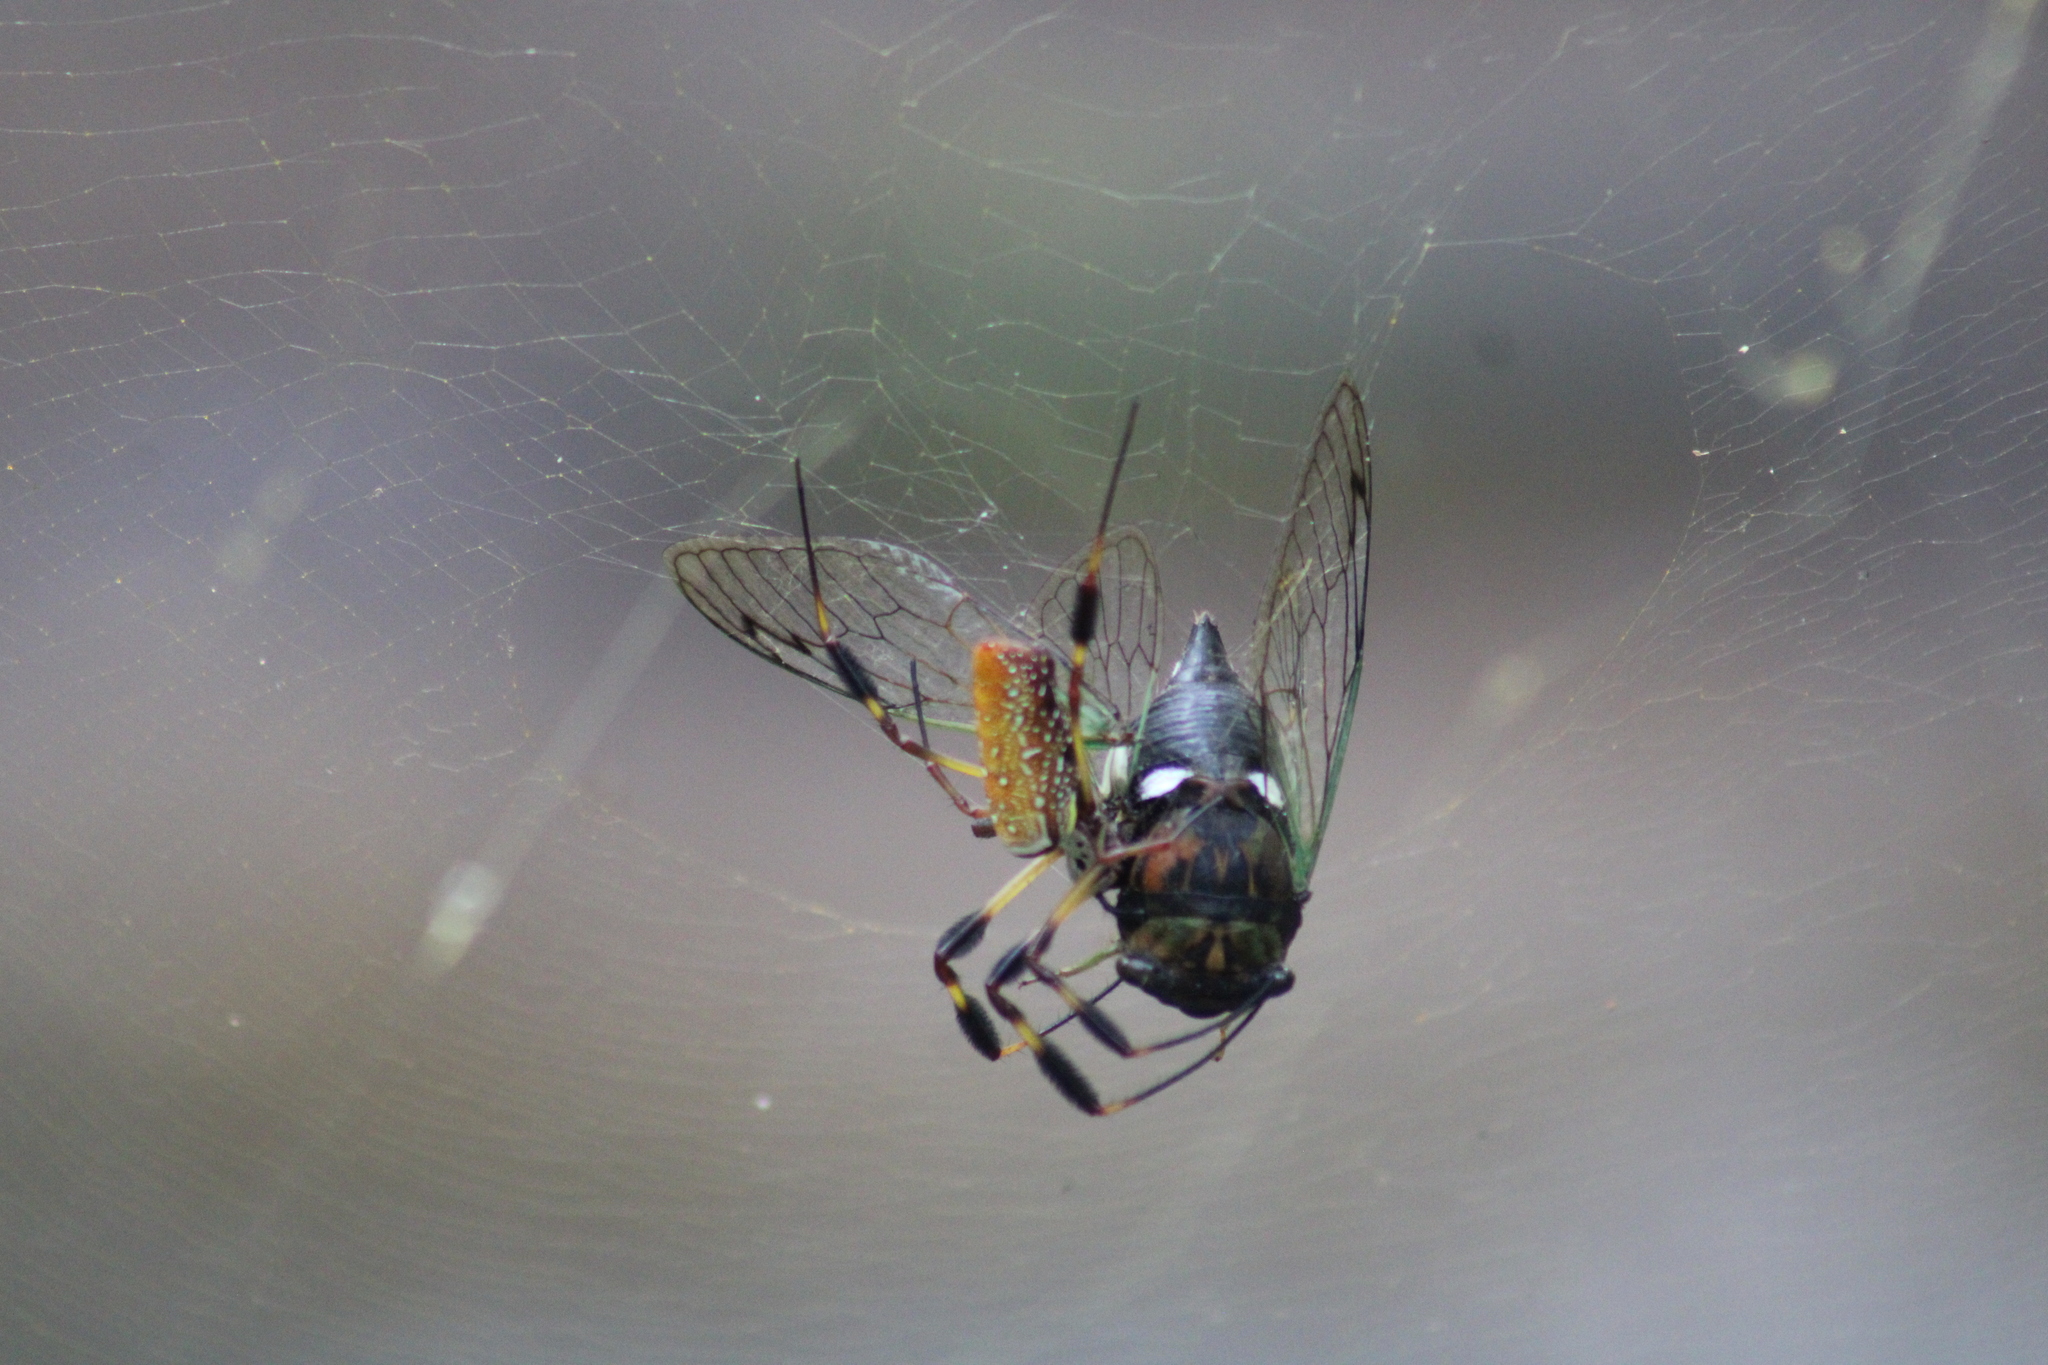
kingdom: Animalia
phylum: Arthropoda
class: Insecta
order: Hemiptera
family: Cicadidae
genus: Neotibicen
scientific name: Neotibicen tibicen
